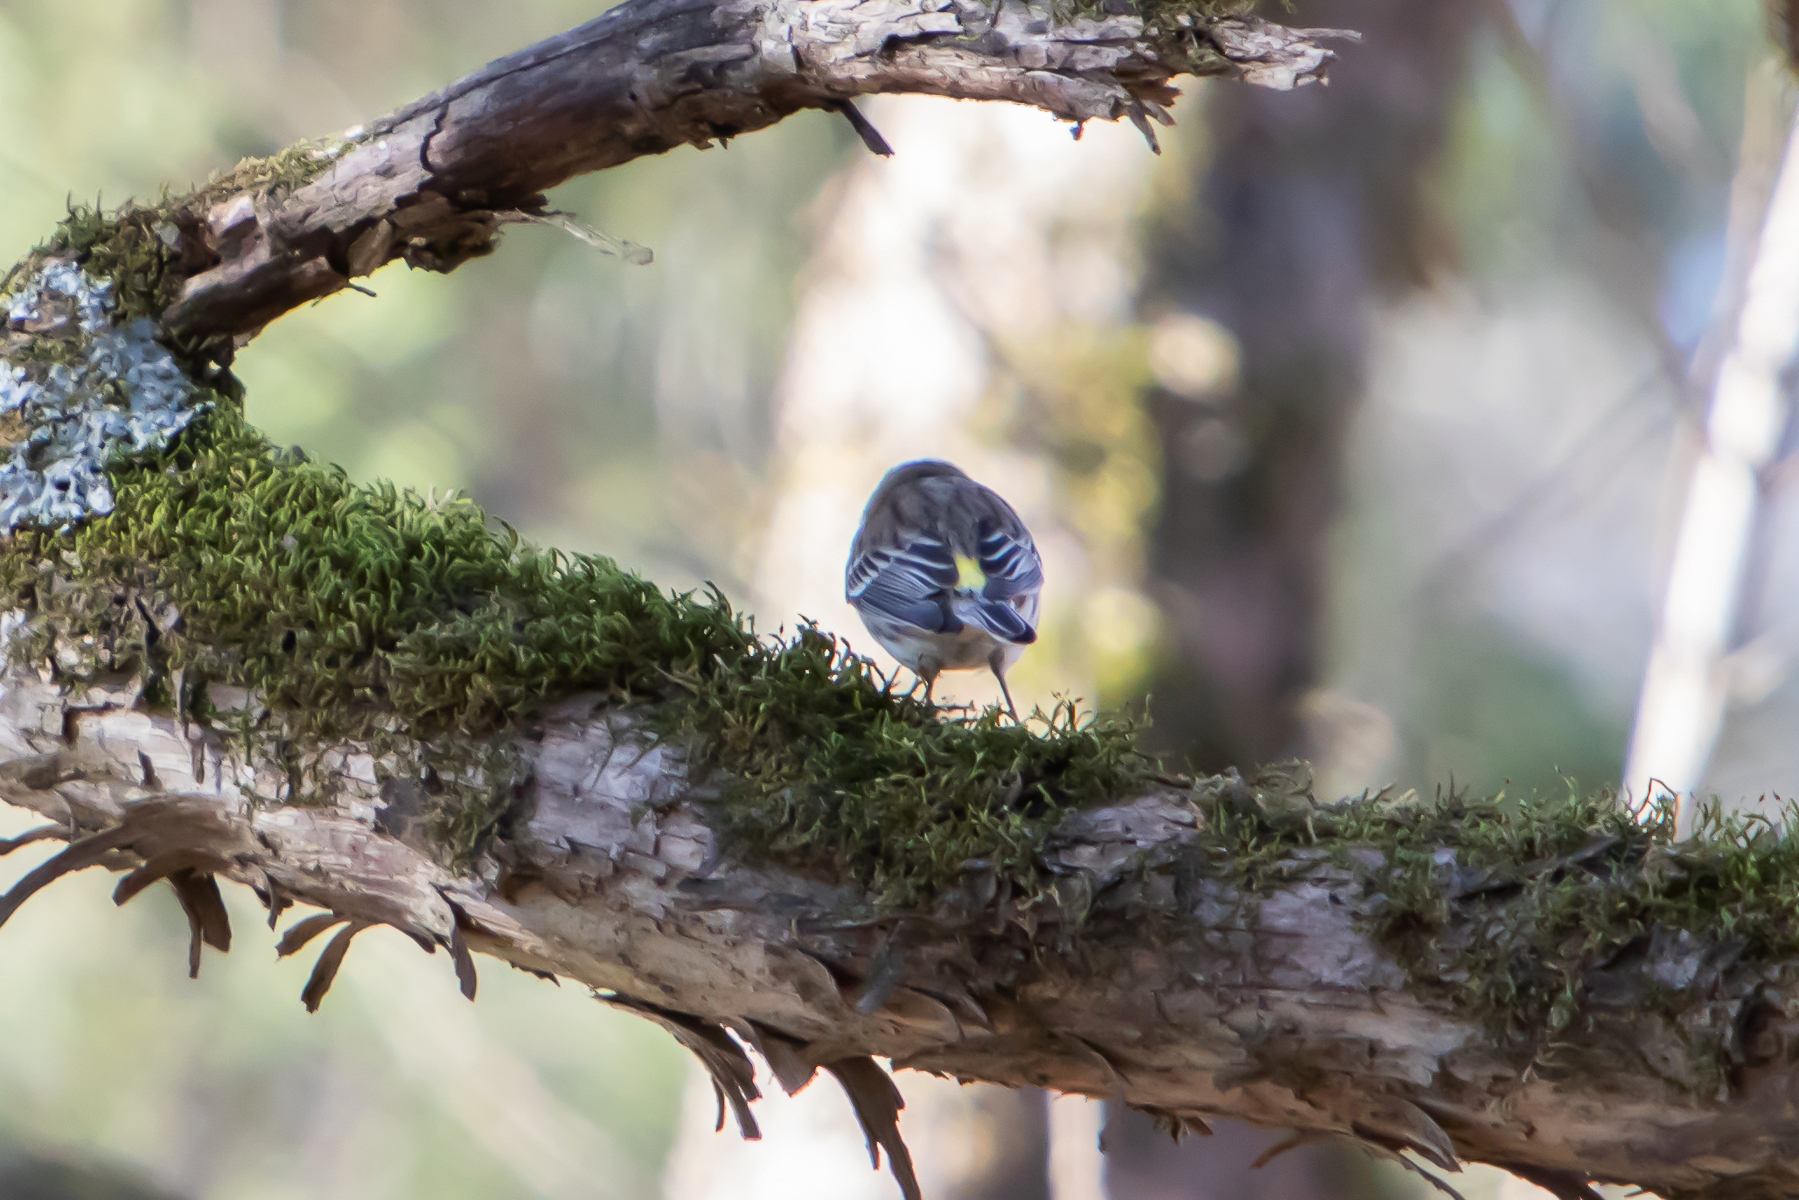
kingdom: Animalia
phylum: Chordata
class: Aves
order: Passeriformes
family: Parulidae
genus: Setophaga
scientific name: Setophaga coronata
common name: Myrtle warbler
